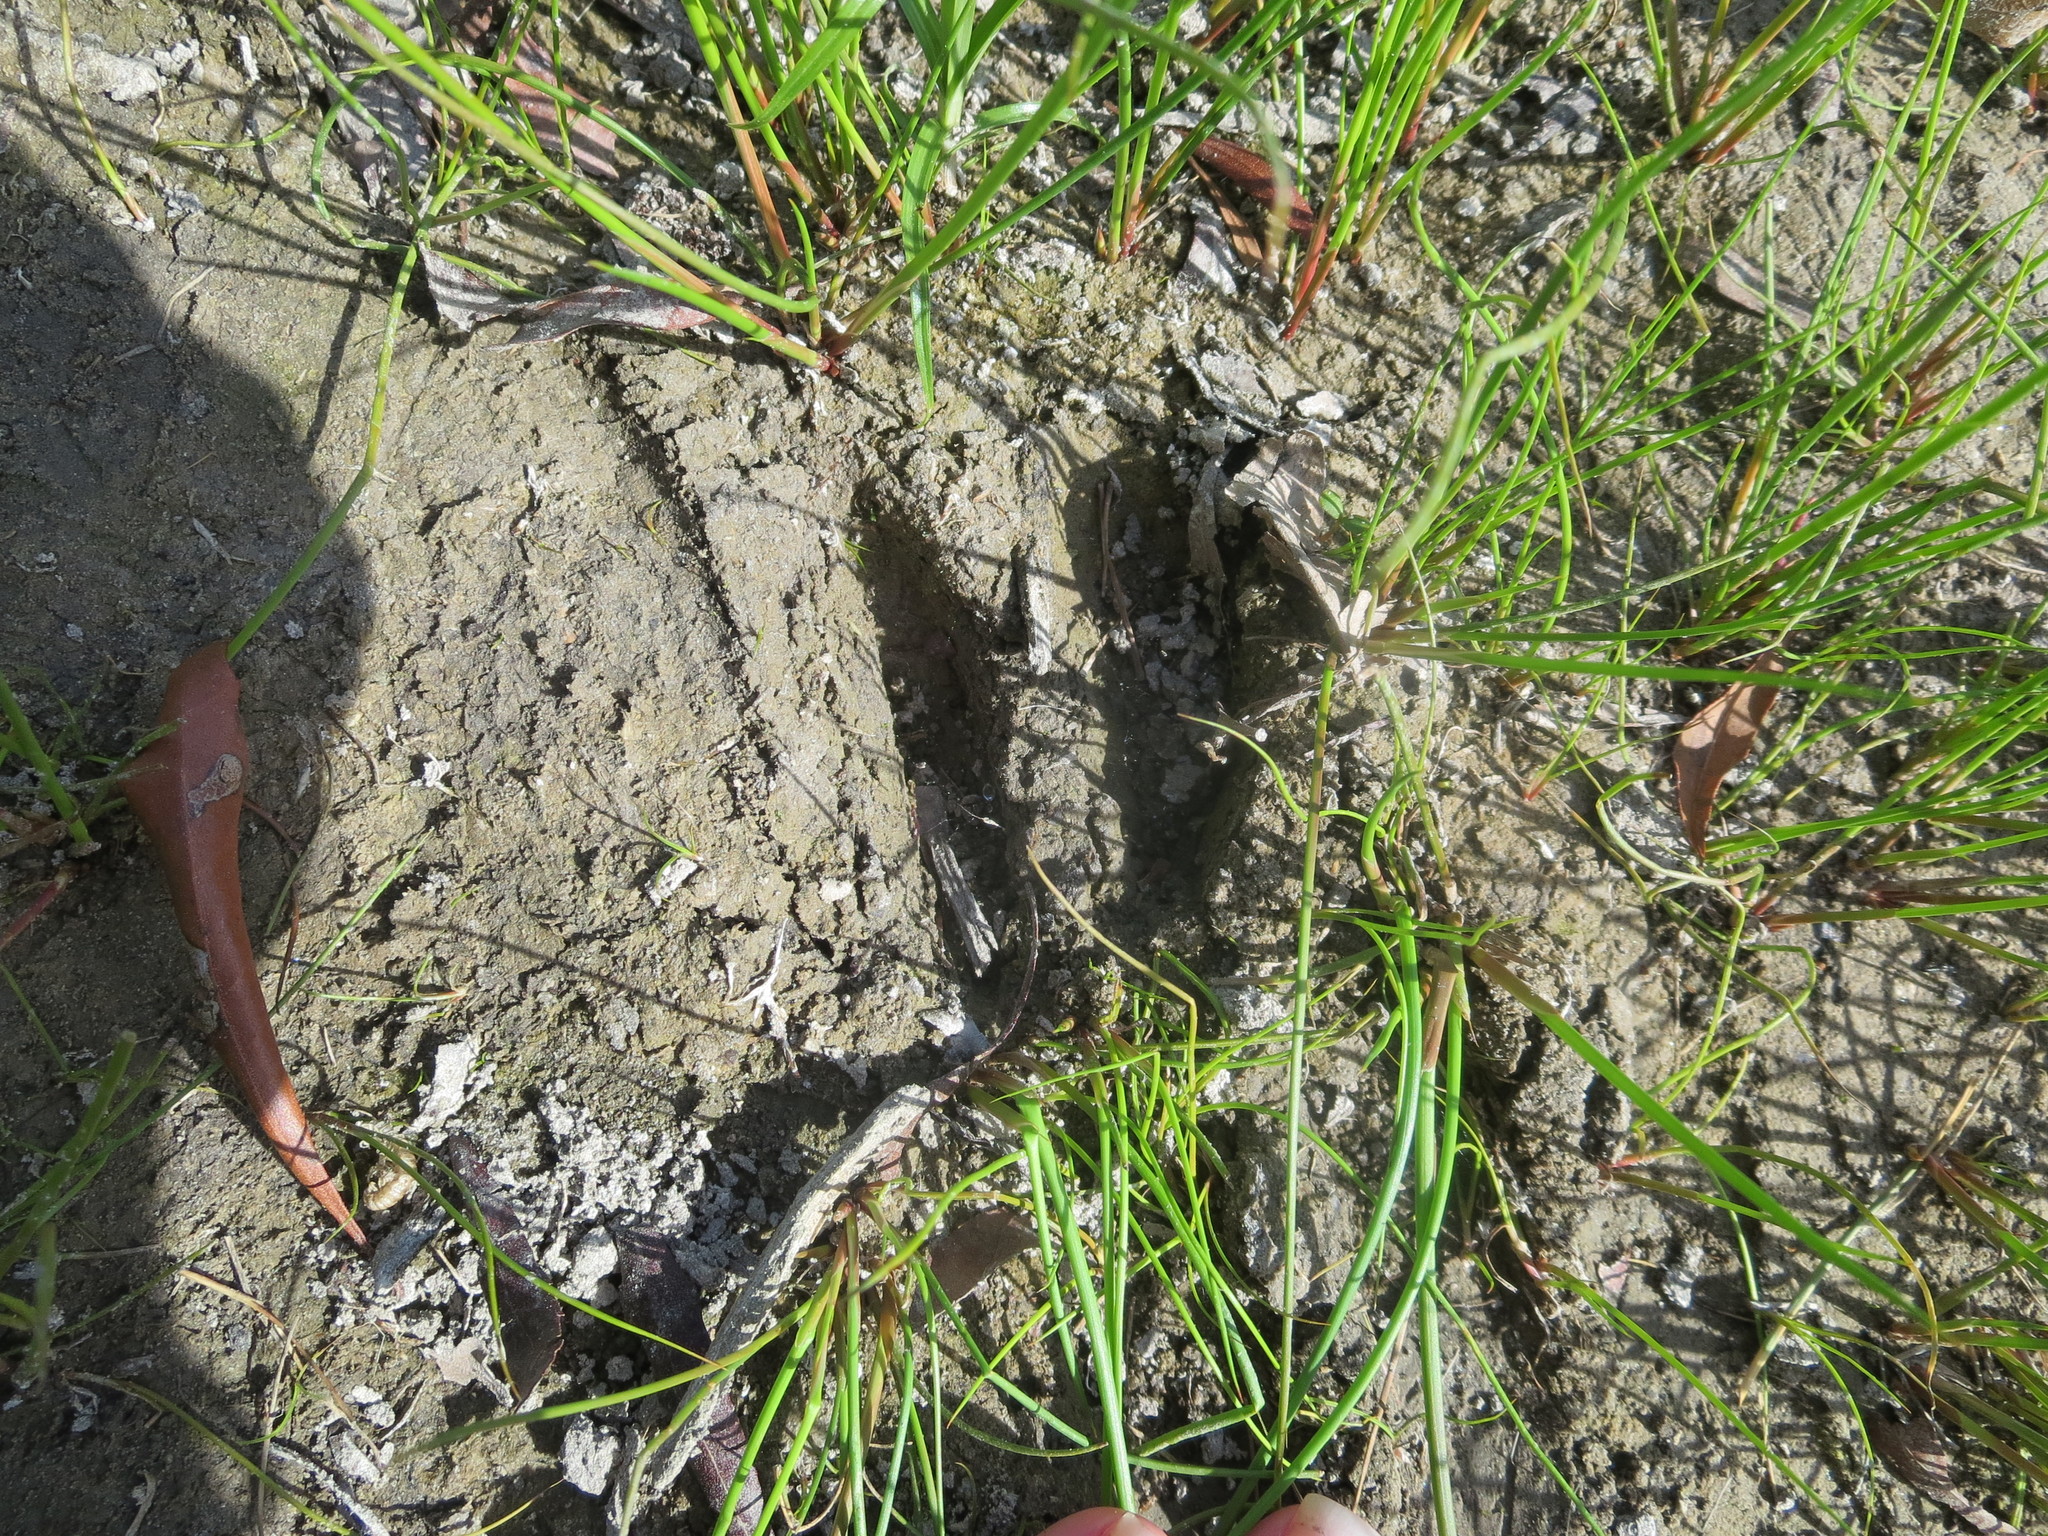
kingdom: Animalia
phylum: Chordata
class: Mammalia
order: Artiodactyla
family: Cervidae
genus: Odocoileus
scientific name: Odocoileus virginianus
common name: White-tailed deer
